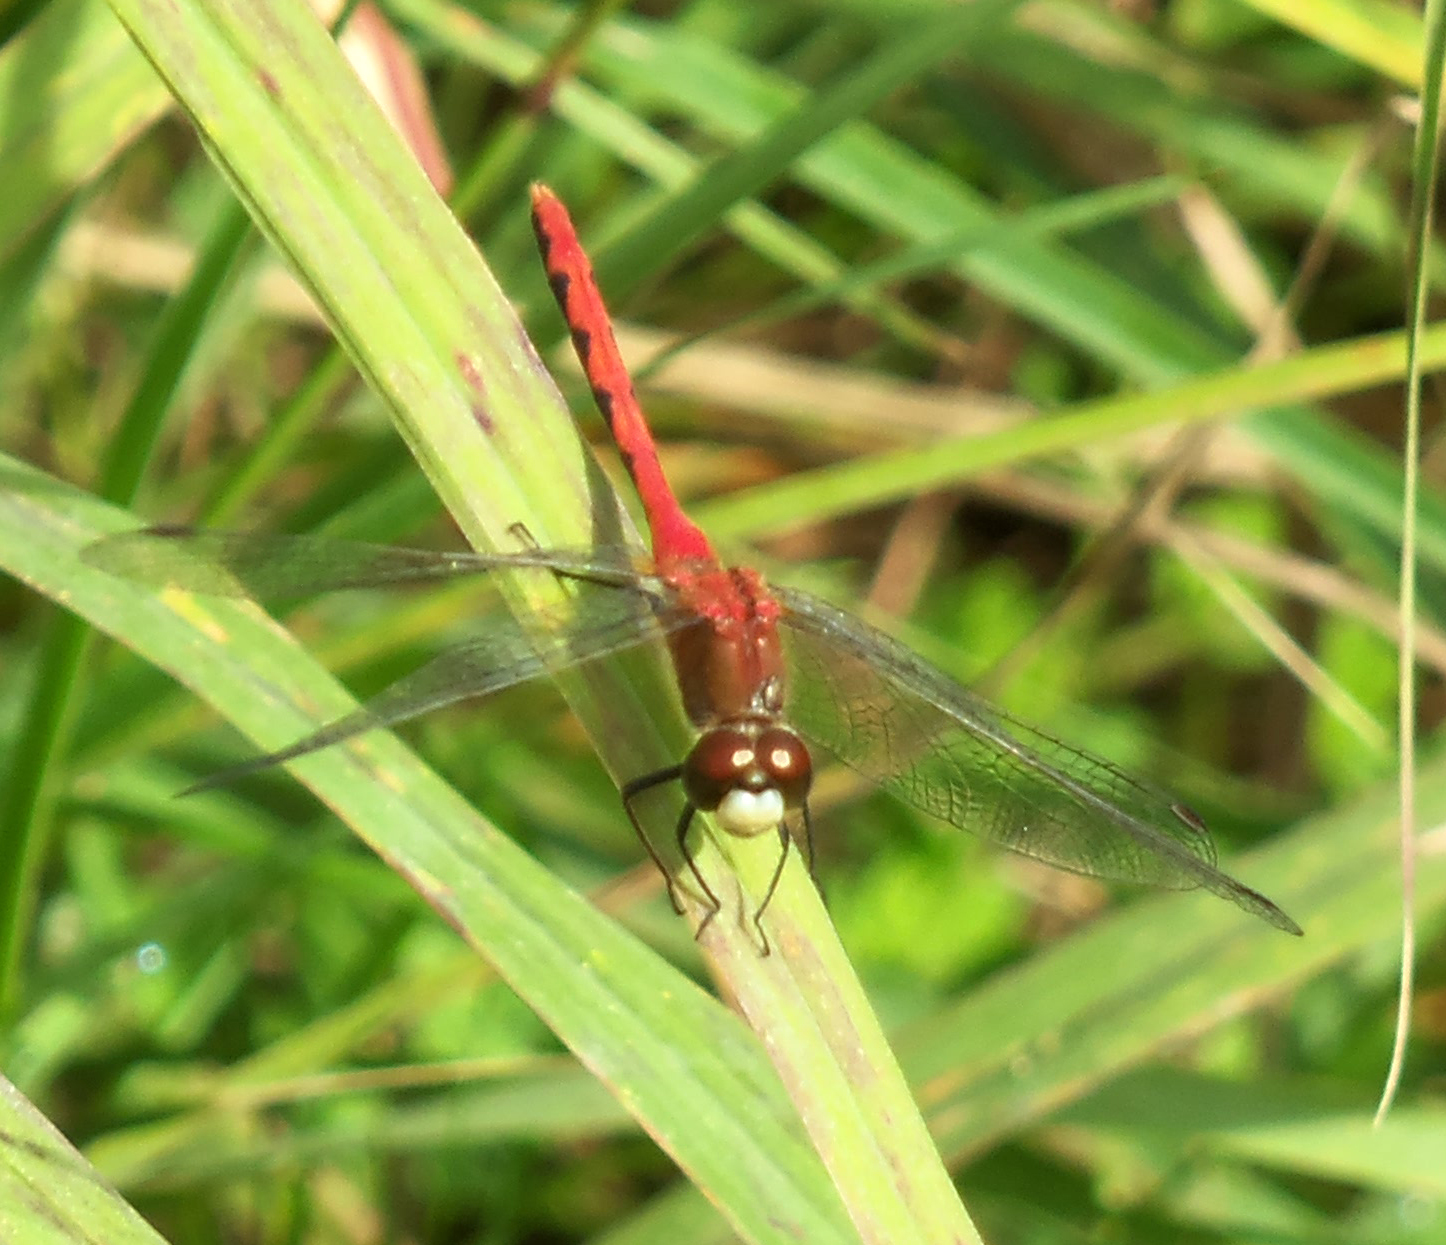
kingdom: Animalia
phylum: Arthropoda
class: Insecta
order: Odonata
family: Libellulidae
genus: Sympetrum
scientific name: Sympetrum obtrusum
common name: White-faced meadowhawk
